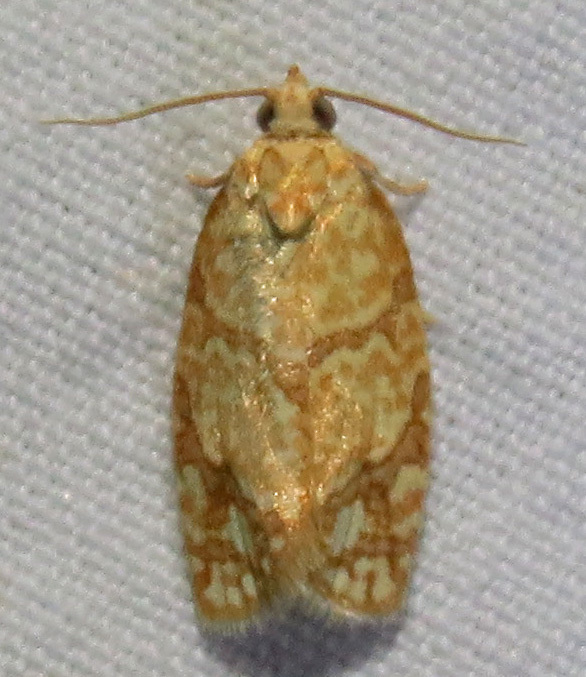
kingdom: Animalia
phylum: Arthropoda
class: Insecta
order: Lepidoptera
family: Tortricidae
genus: Argyrotaenia
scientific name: Argyrotaenia quercifoliana
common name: Yellow-winged oak leafroller moth
